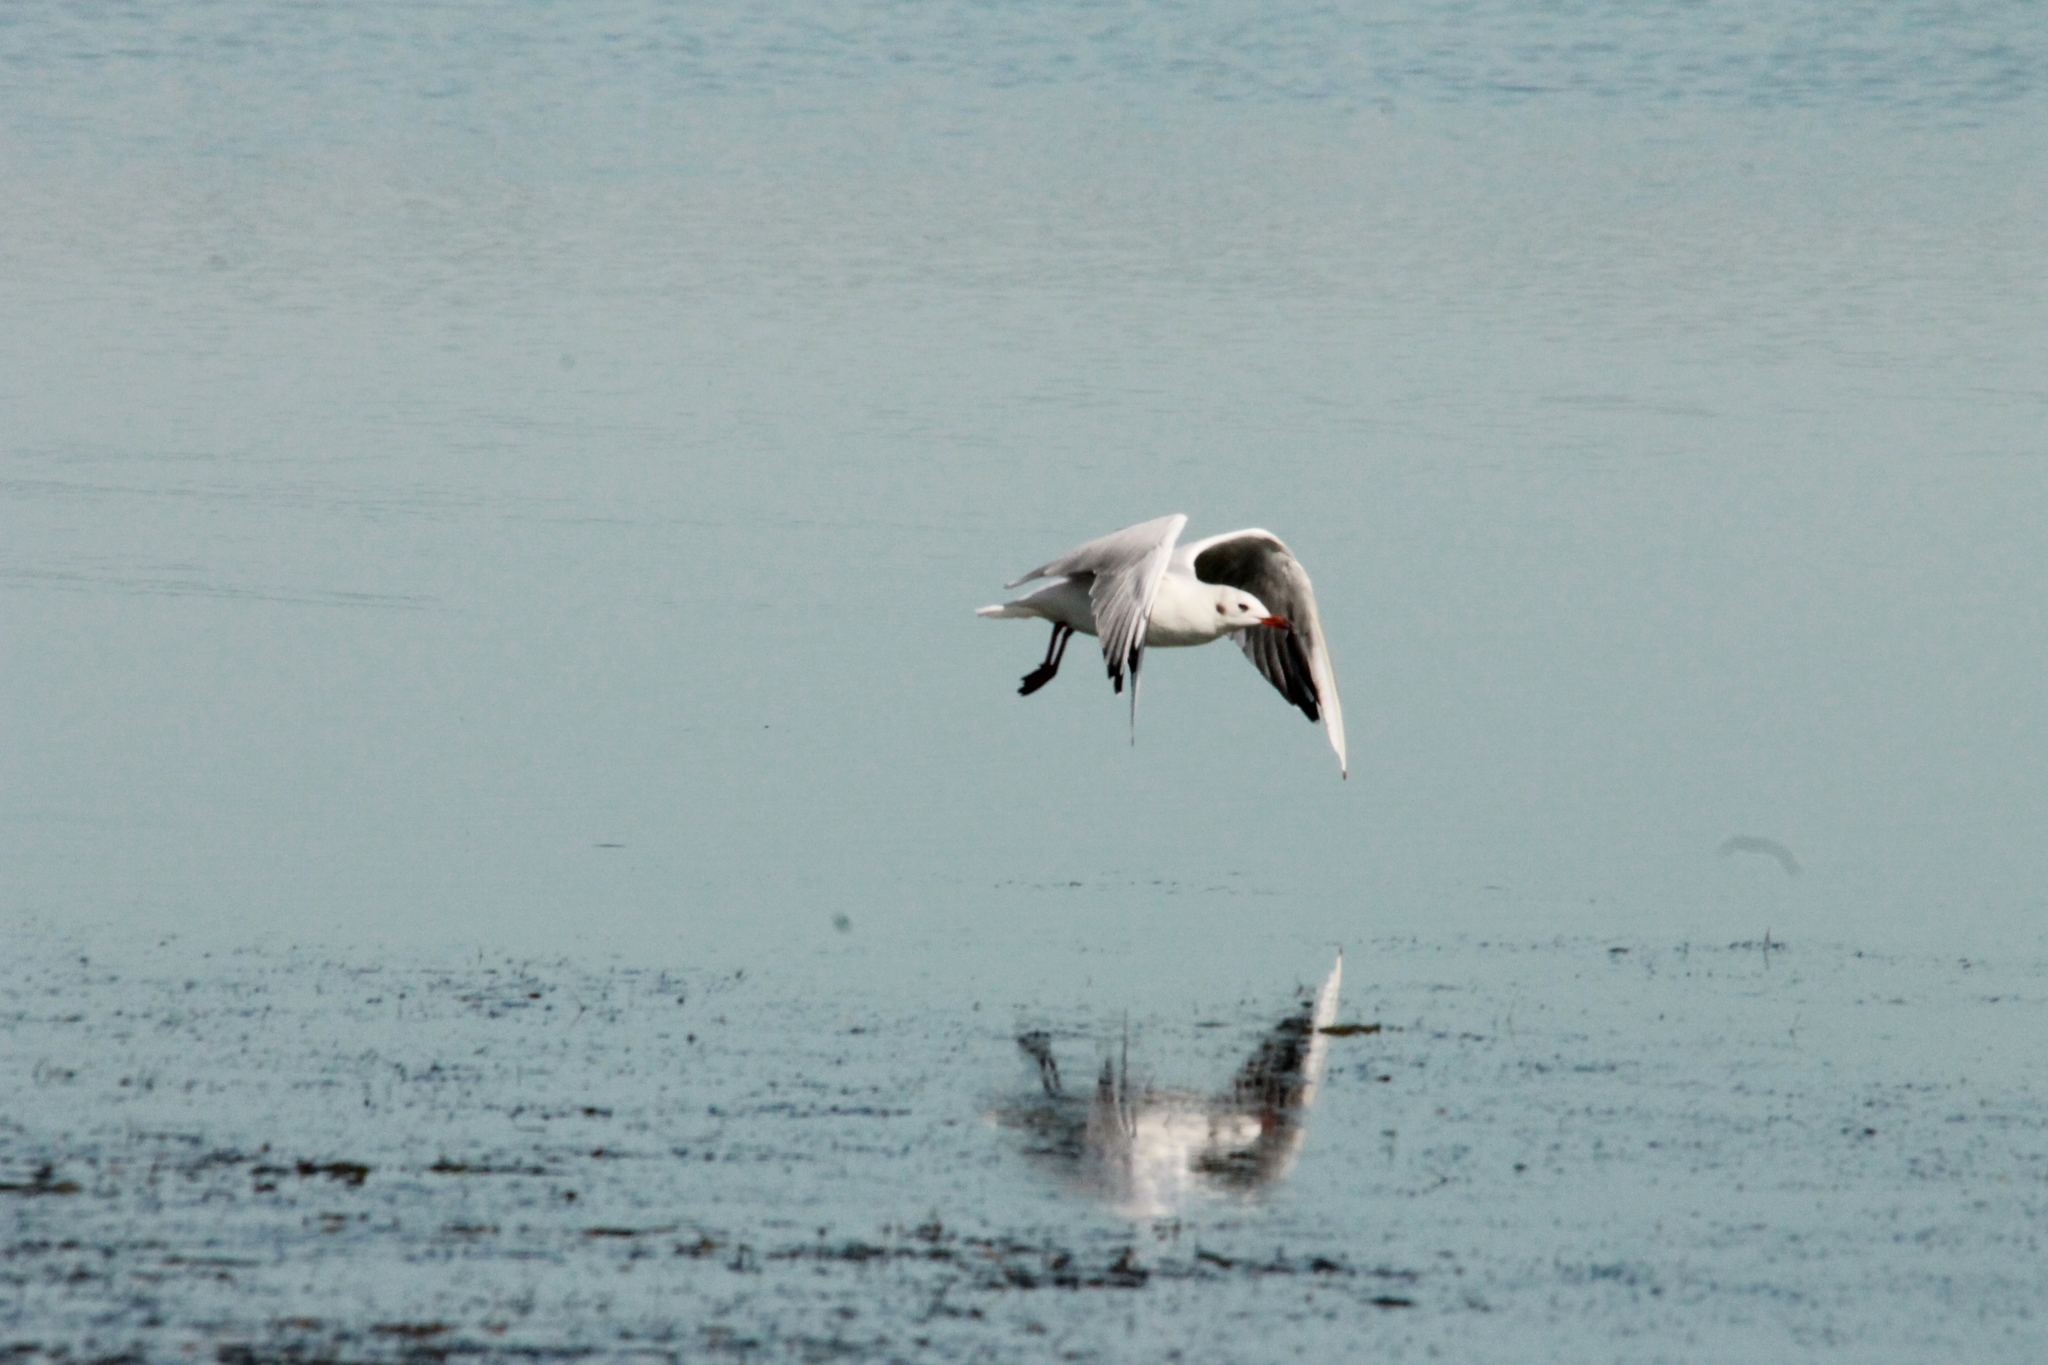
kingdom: Animalia
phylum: Chordata
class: Aves
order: Charadriiformes
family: Laridae
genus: Chroicocephalus
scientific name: Chroicocephalus ridibundus
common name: Black-headed gull
